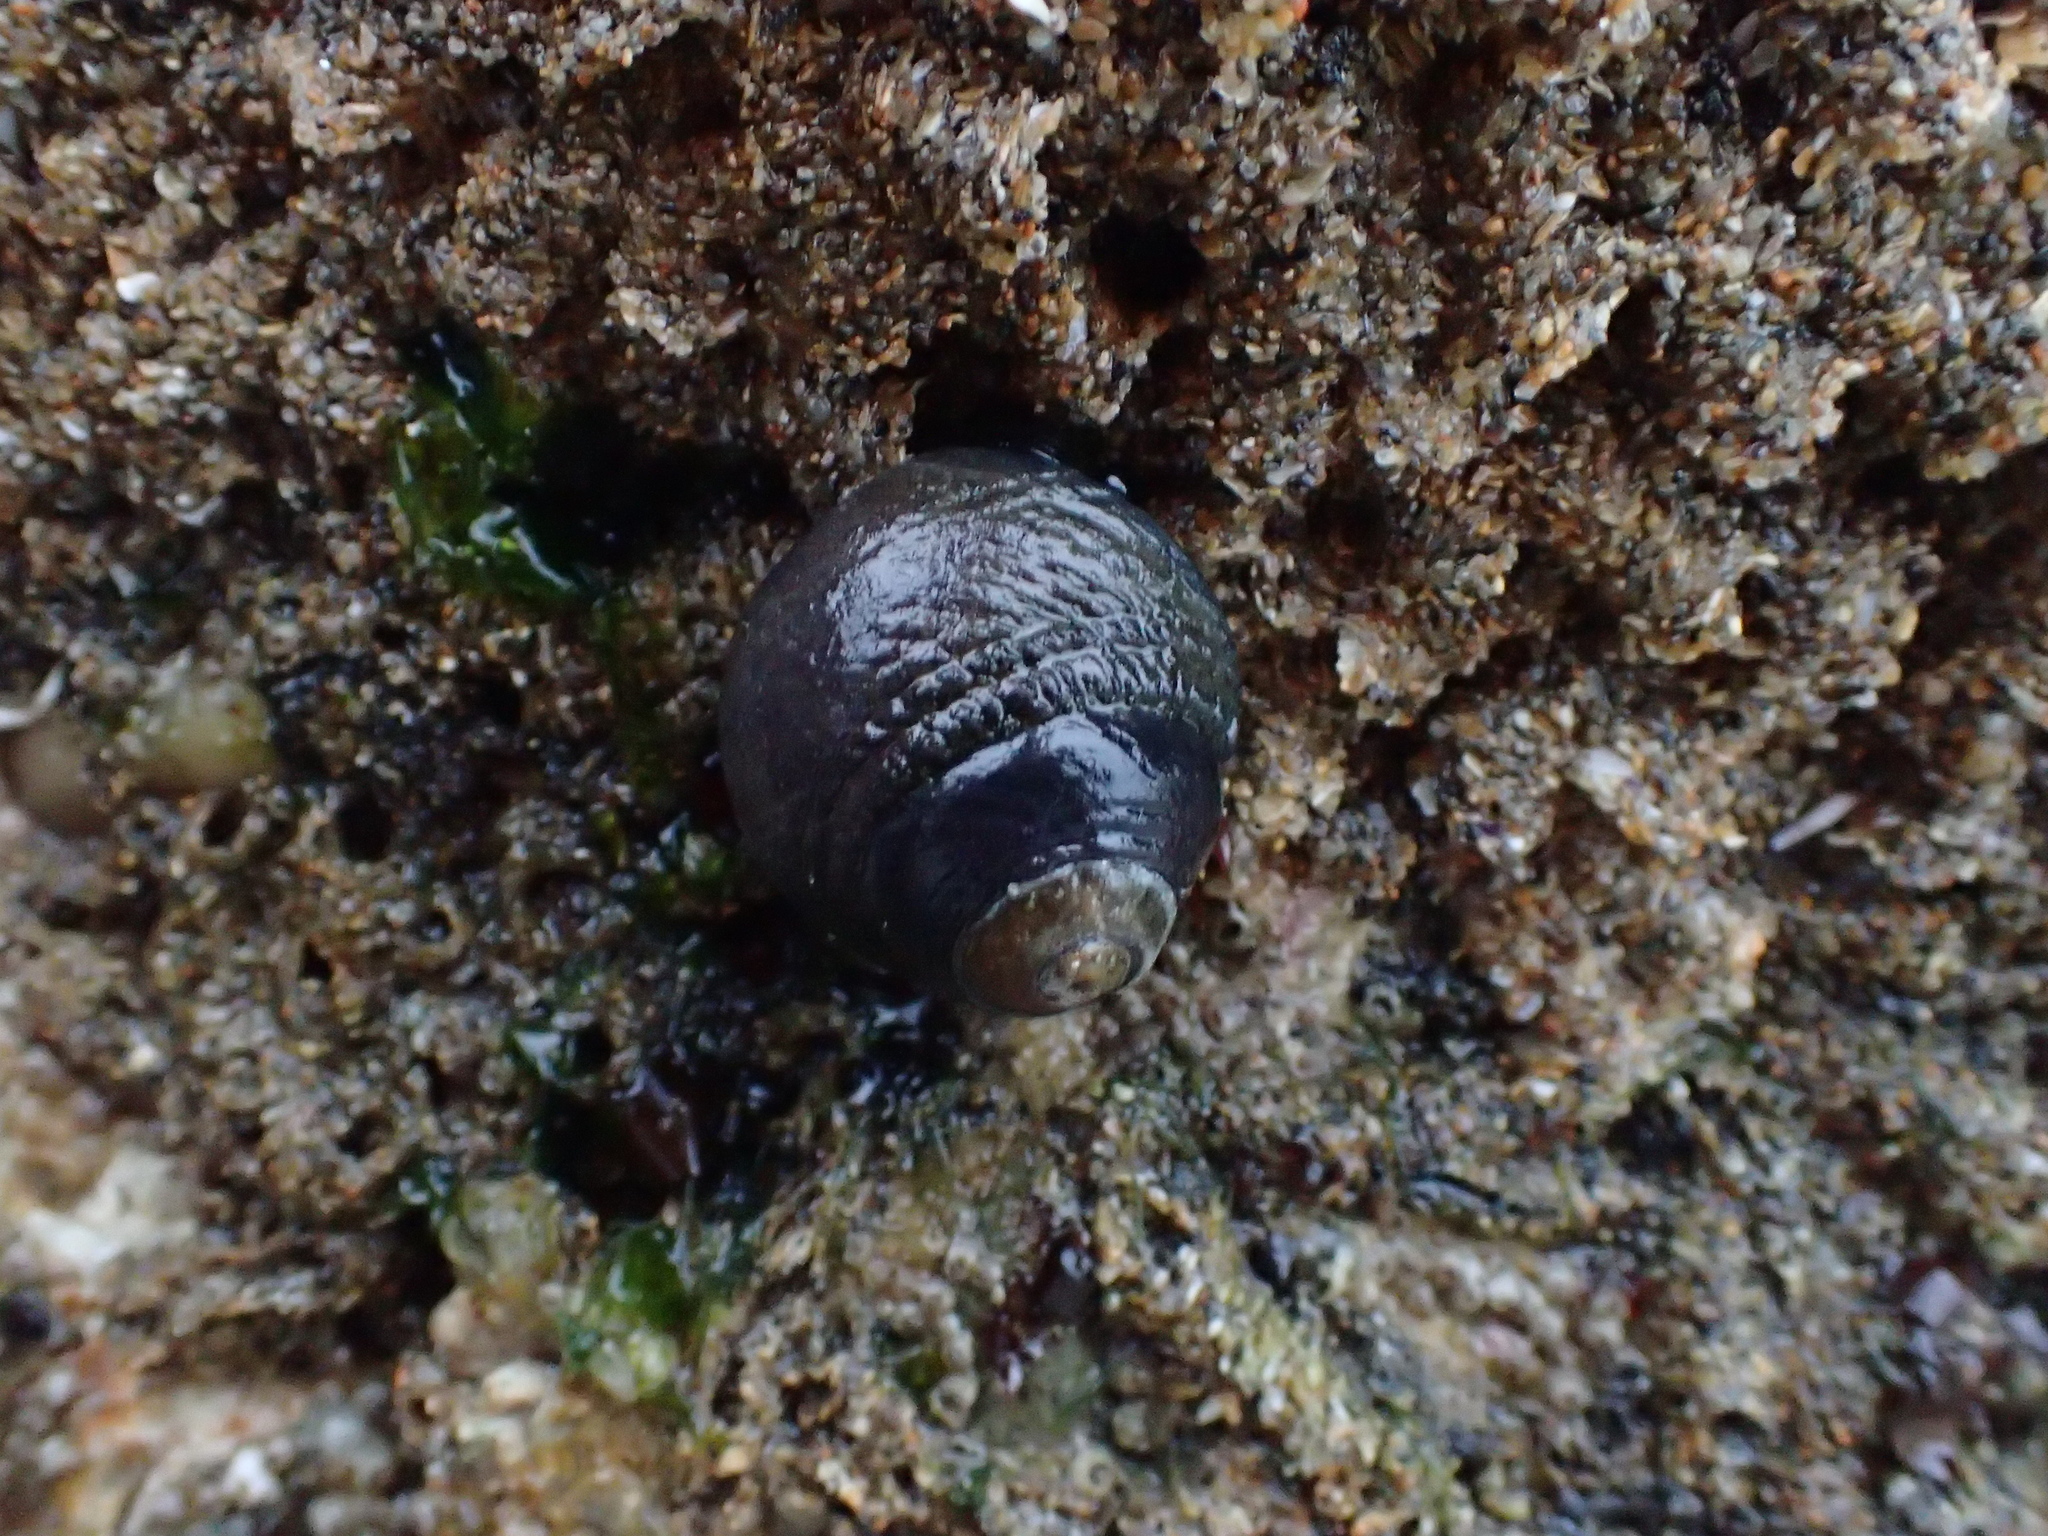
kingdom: Animalia
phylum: Mollusca
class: Gastropoda
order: Trochida
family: Tegulidae
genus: Tegula
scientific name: Tegula funebralis
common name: Black tegula
